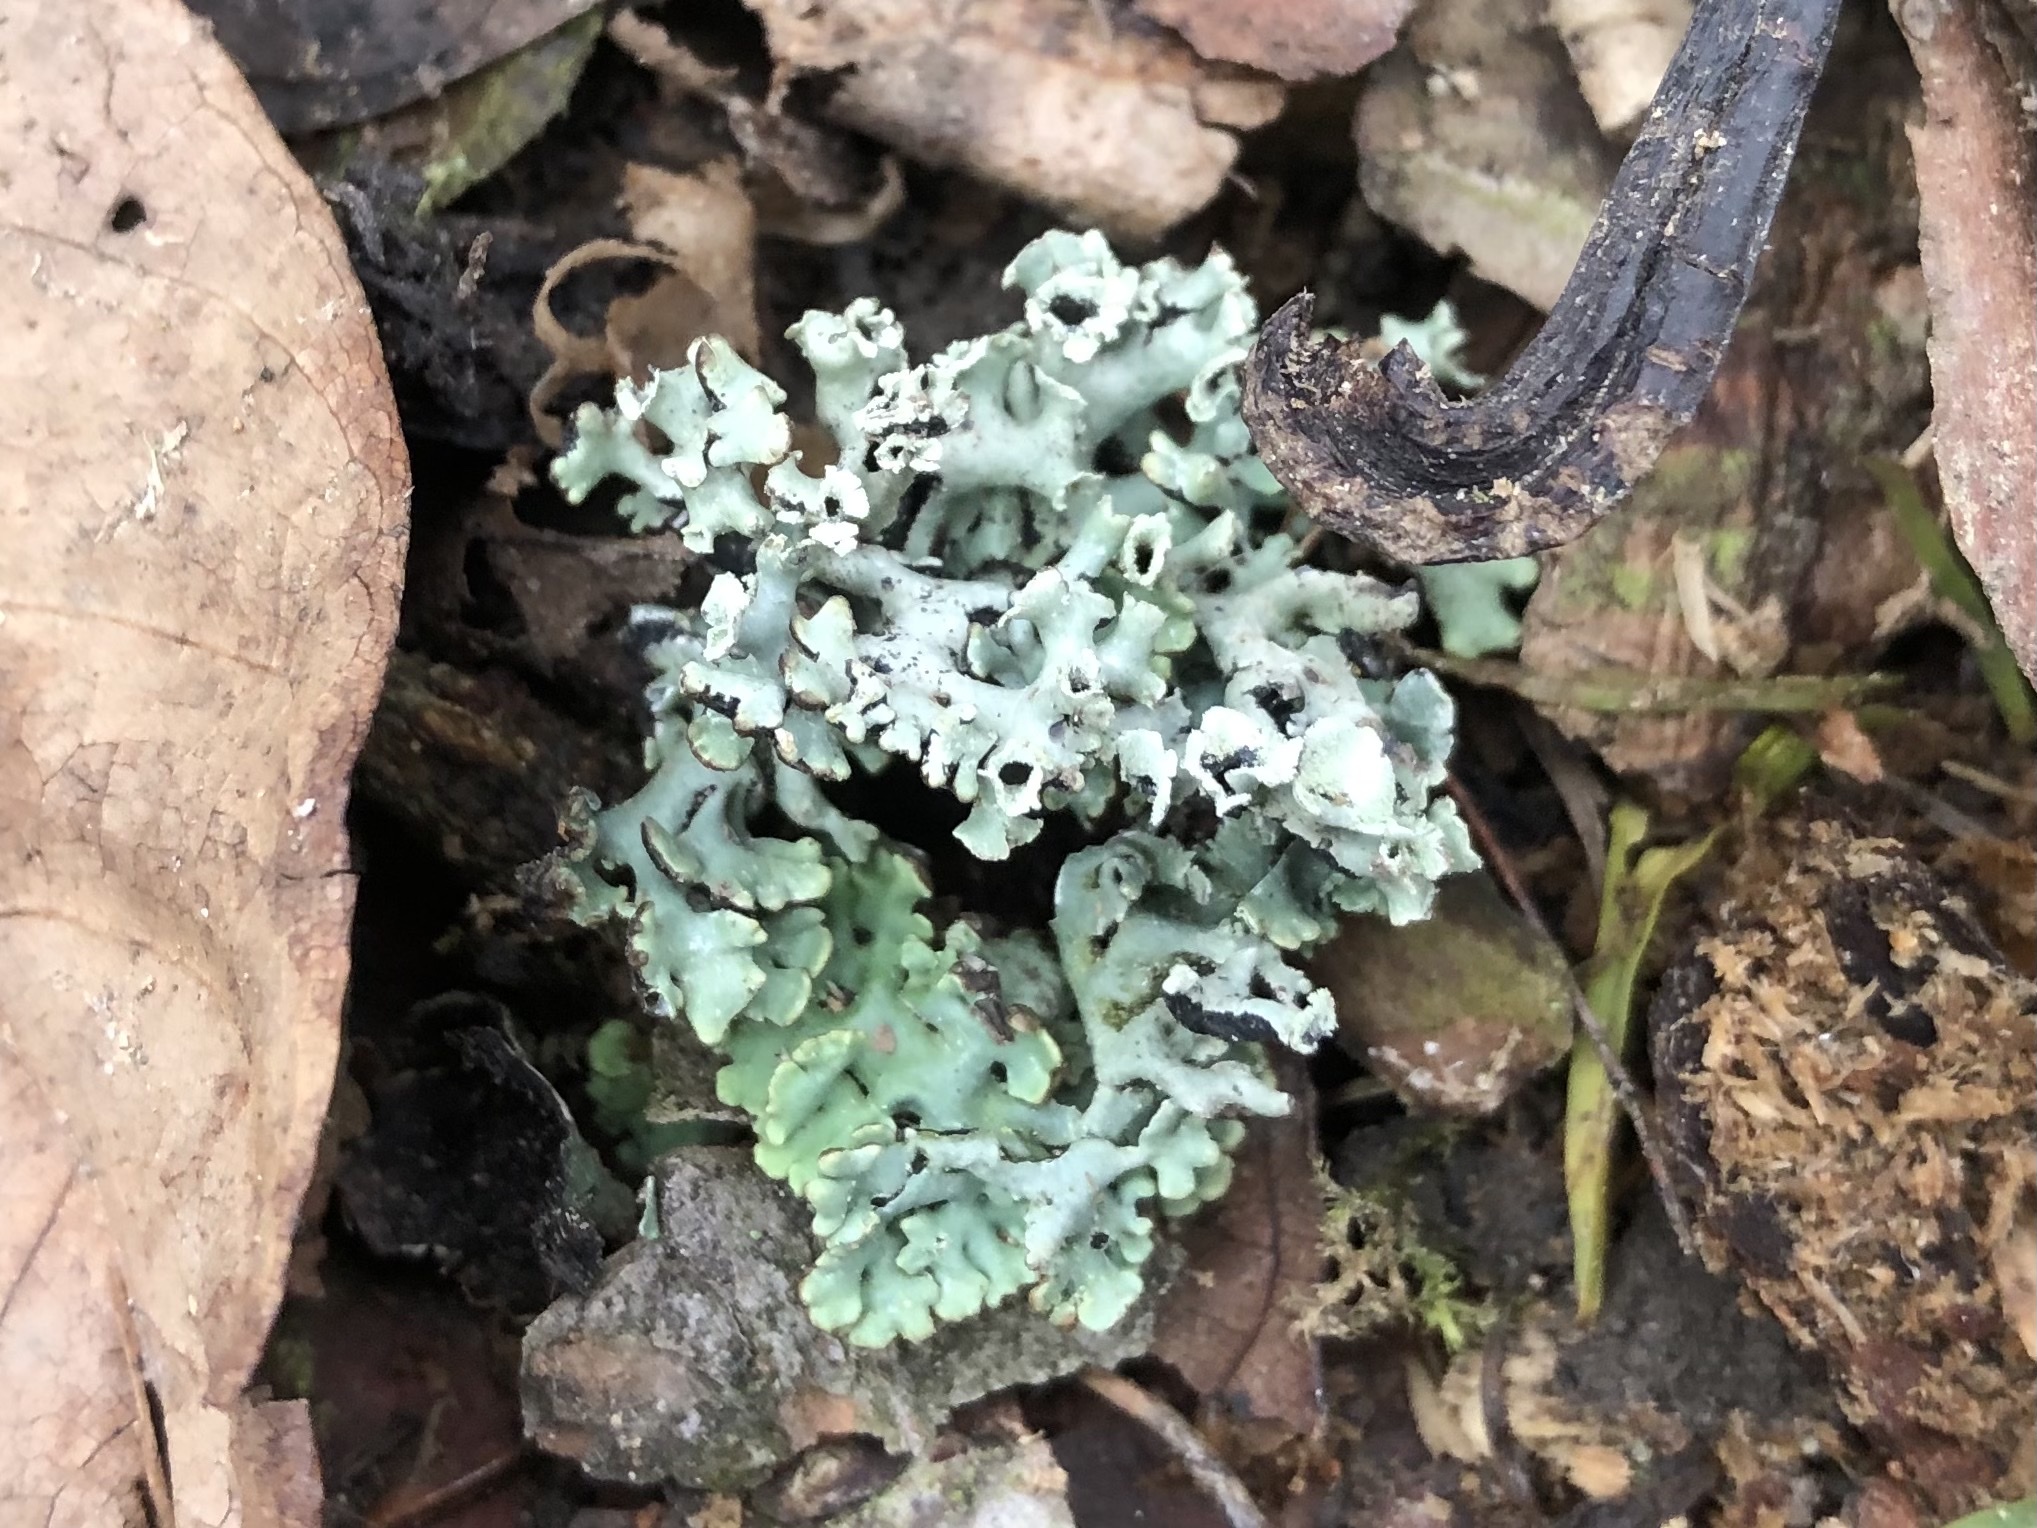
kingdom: Fungi
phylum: Ascomycota
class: Lecanoromycetes
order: Lecanorales
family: Parmeliaceae
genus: Hypogymnia
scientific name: Hypogymnia physodes
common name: Dark crottle
